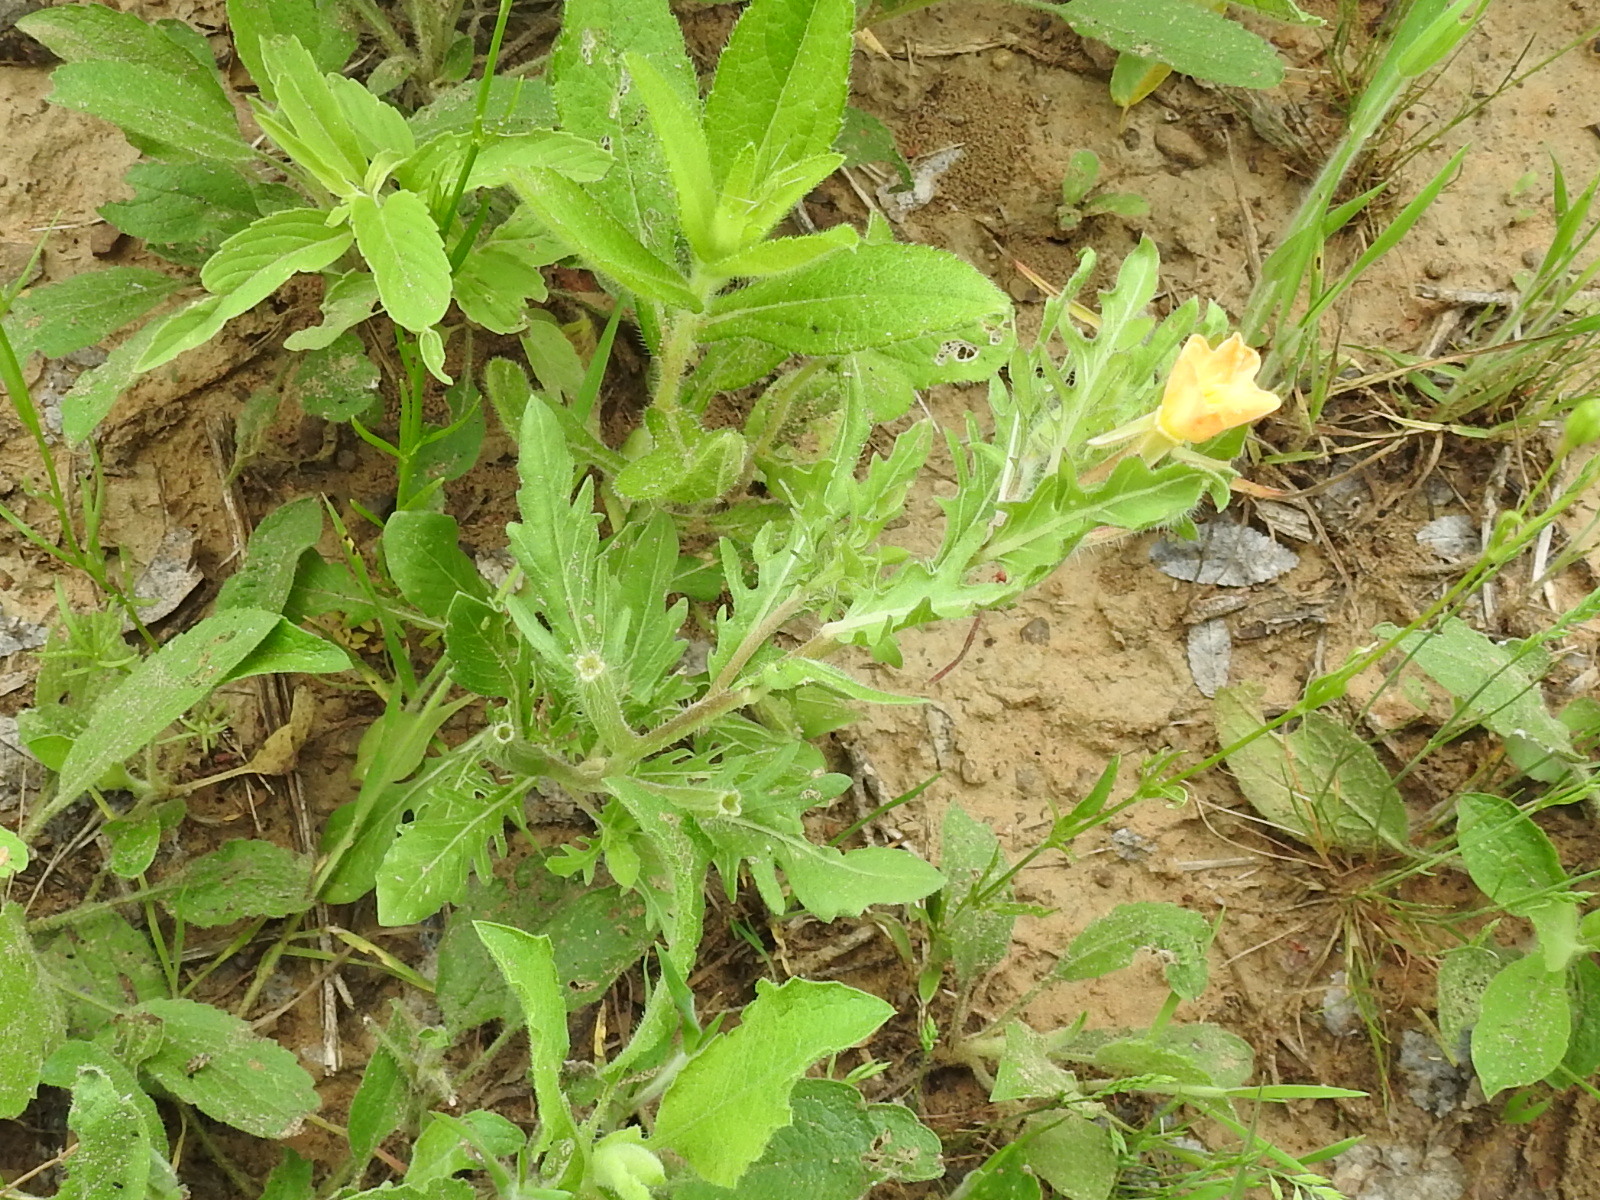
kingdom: Plantae
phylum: Tracheophyta
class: Magnoliopsida
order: Myrtales
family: Onagraceae
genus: Oenothera
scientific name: Oenothera laciniata
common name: Cut-leaved evening-primrose
